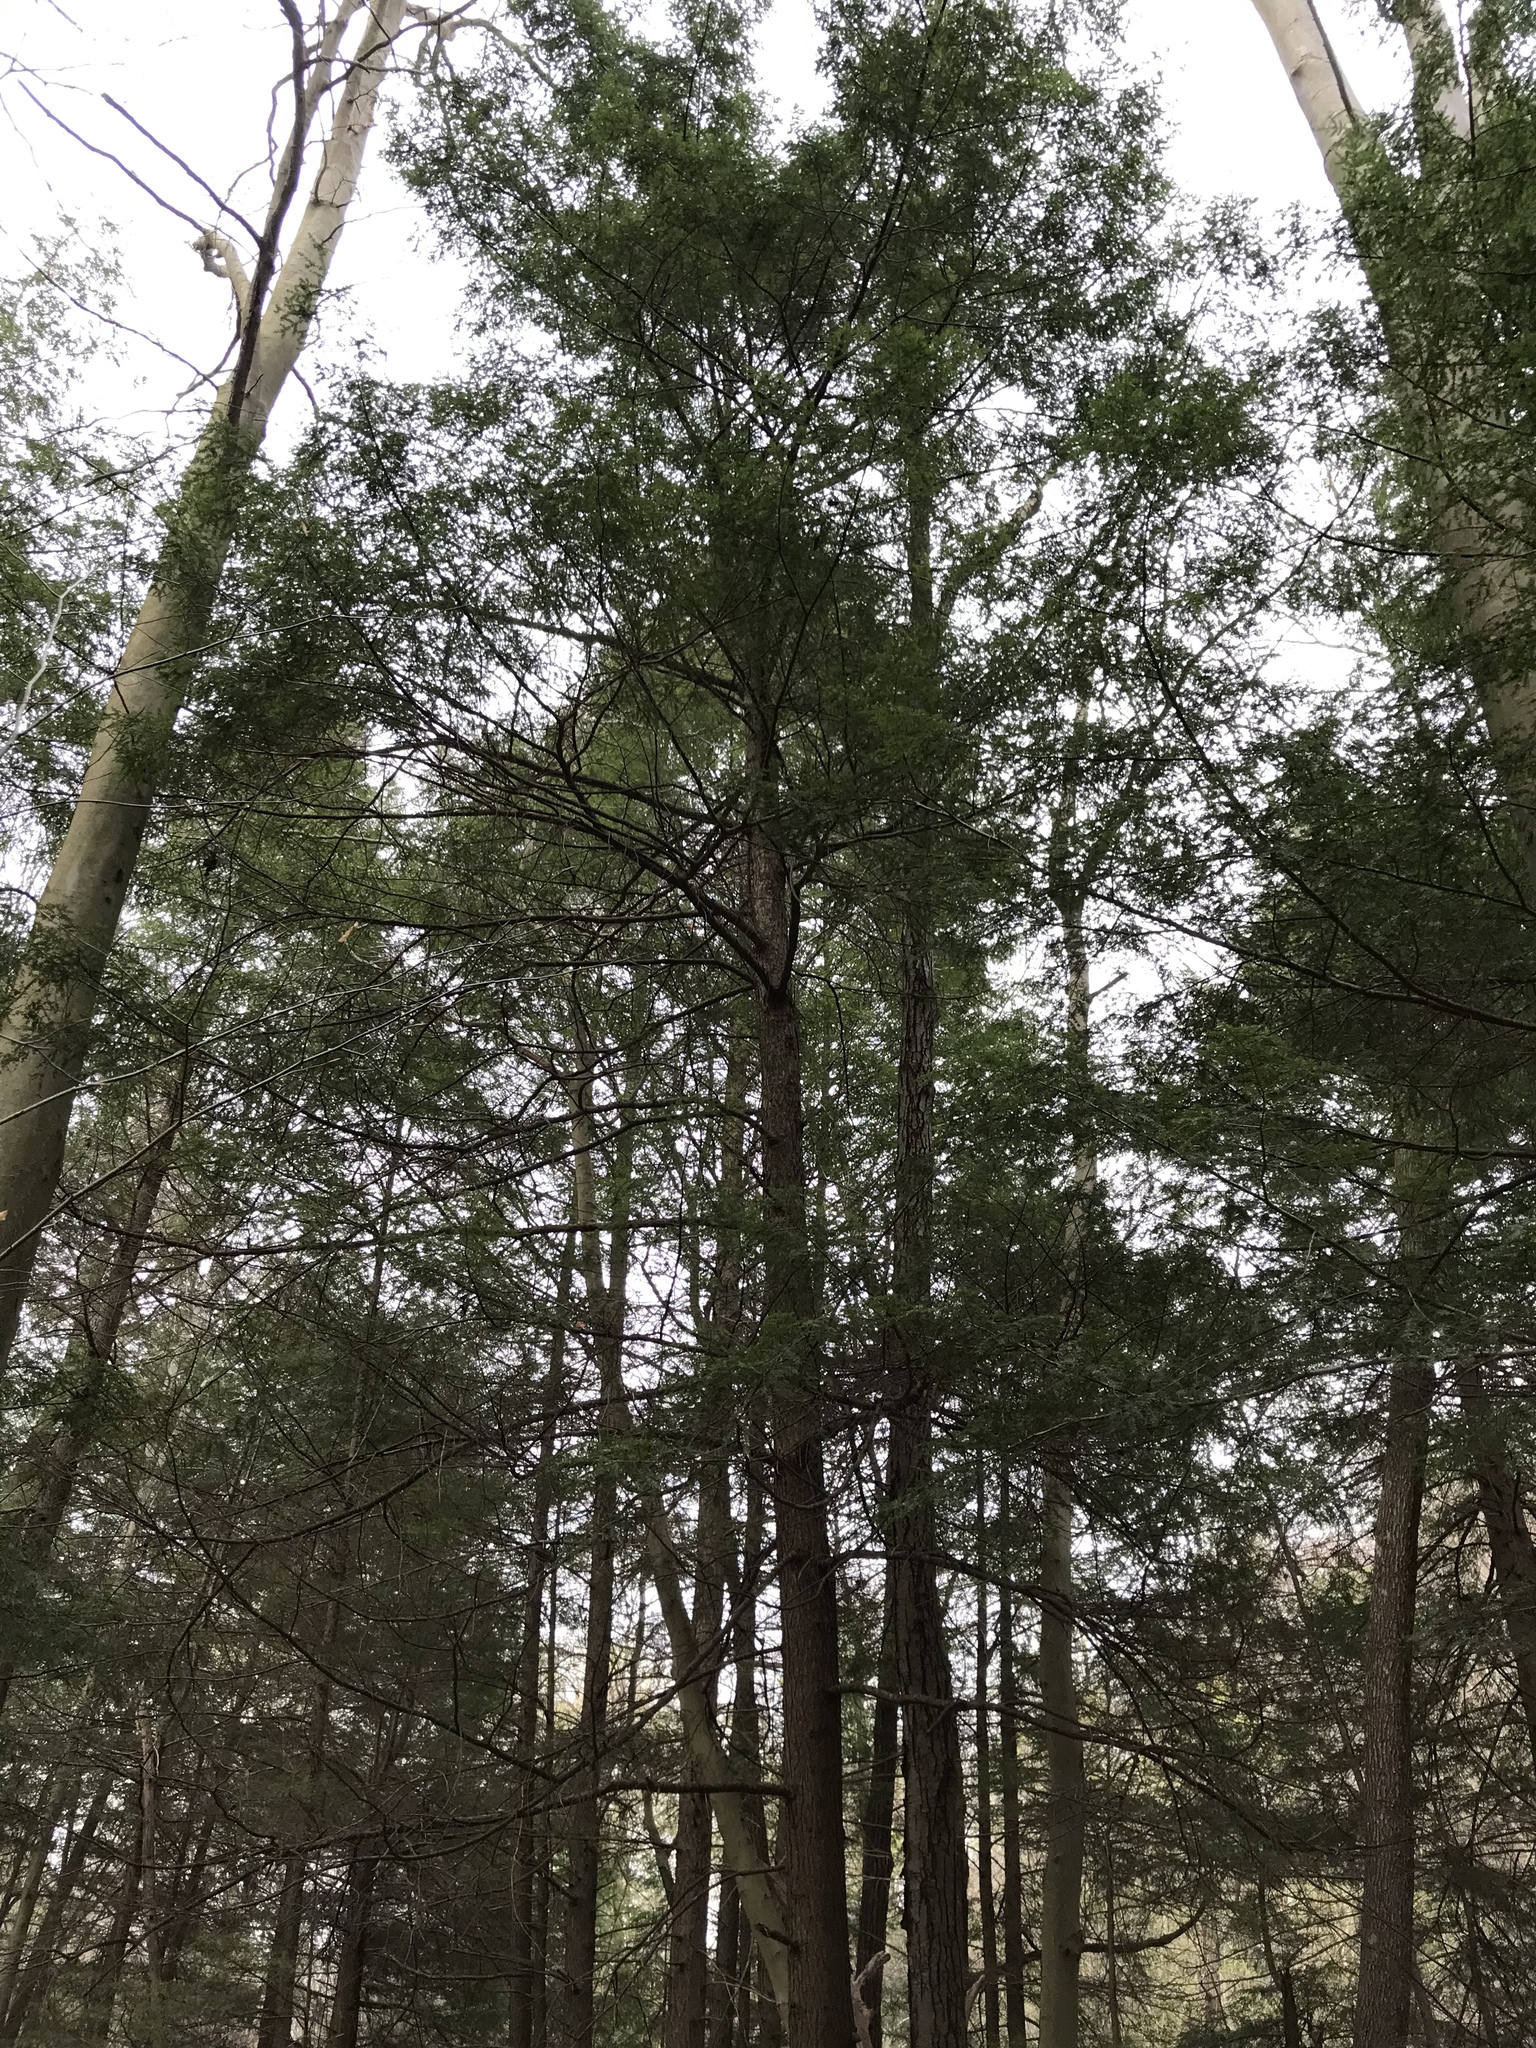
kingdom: Plantae
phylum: Tracheophyta
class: Pinopsida
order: Pinales
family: Pinaceae
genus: Tsuga
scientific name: Tsuga canadensis
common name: Eastern hemlock
